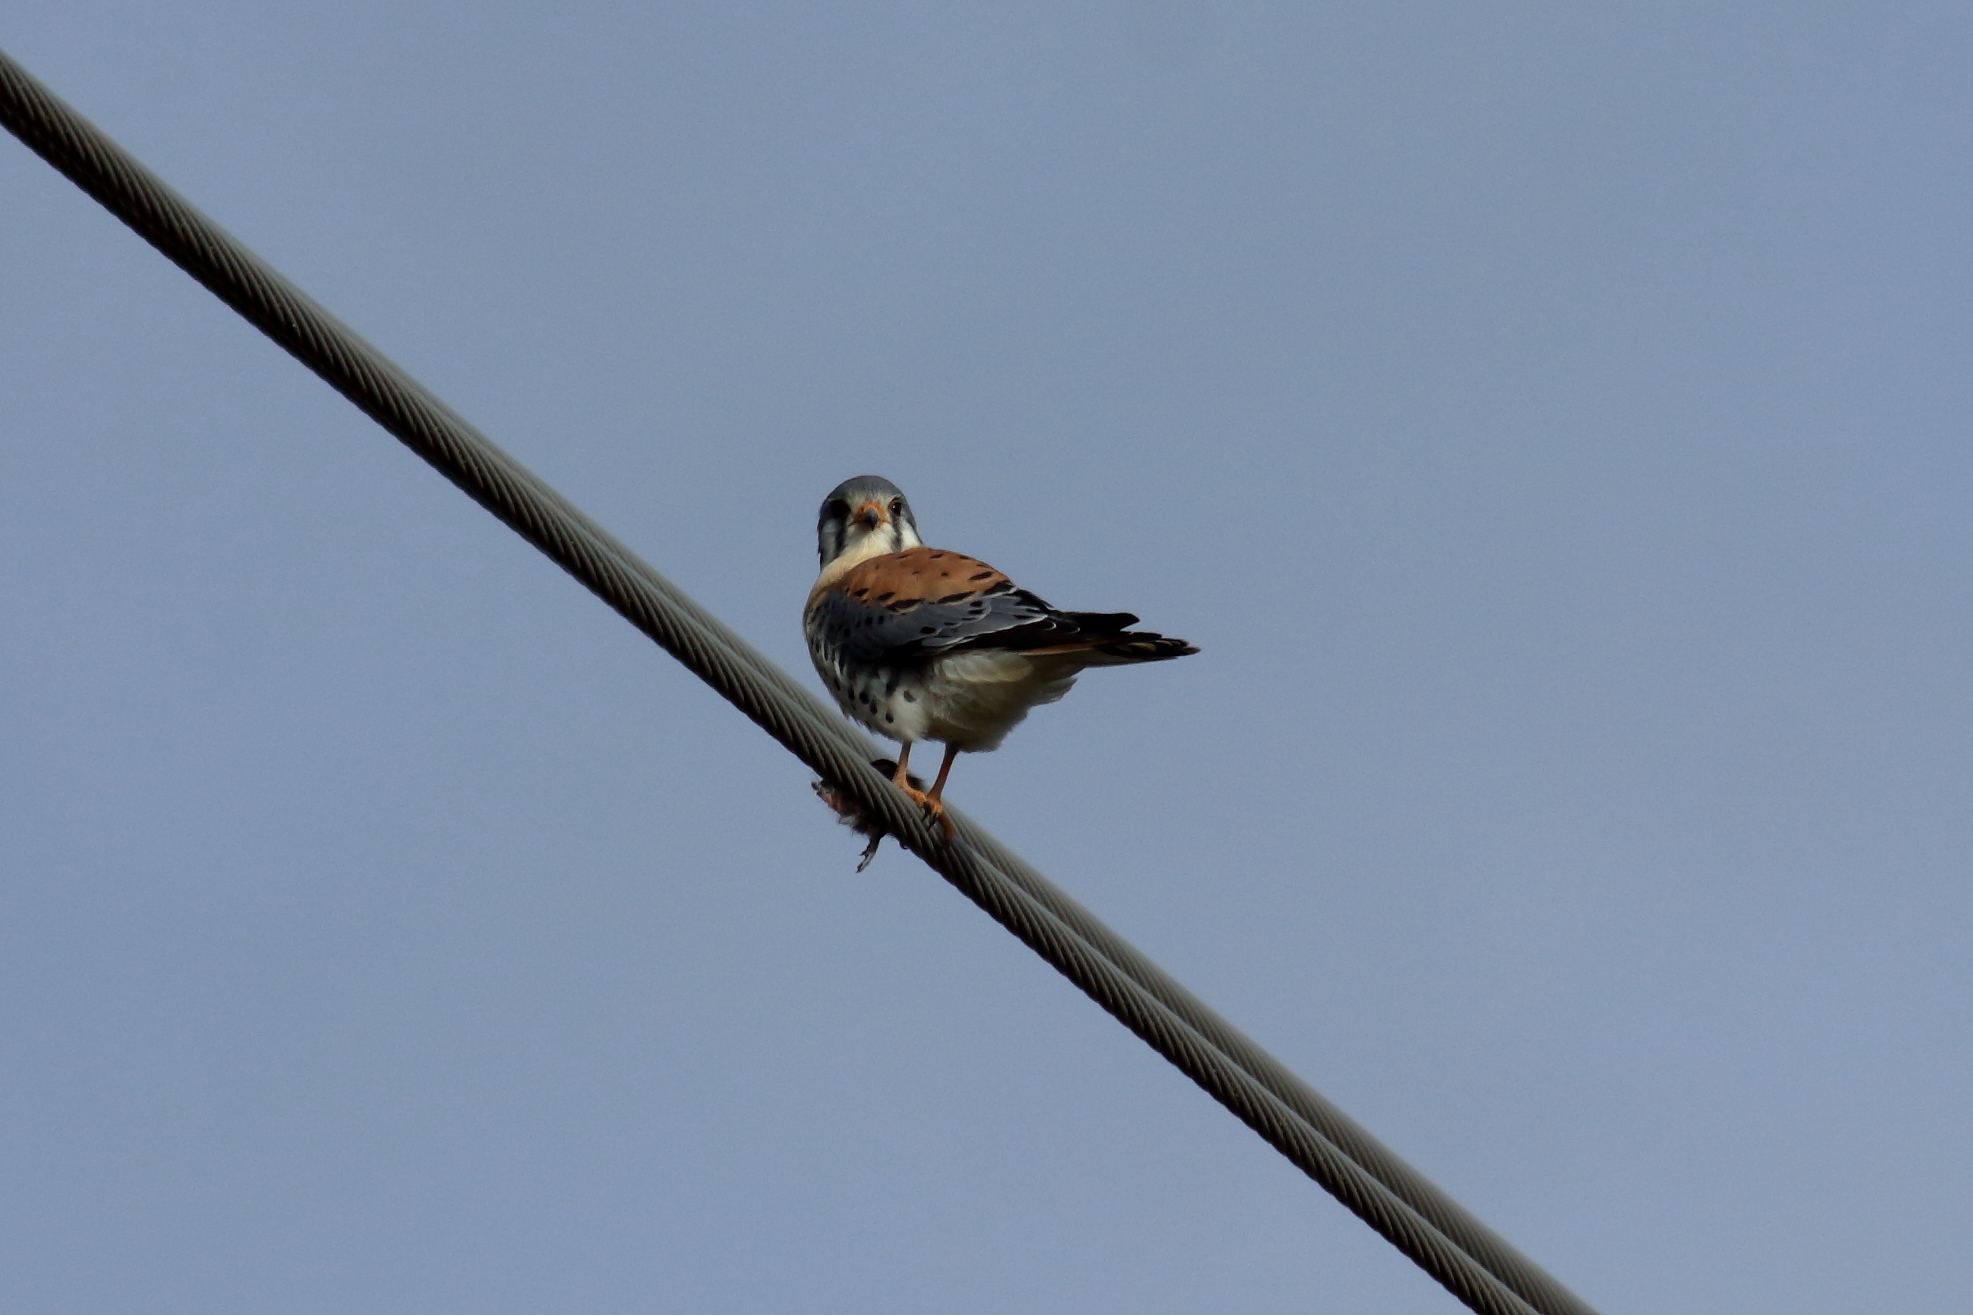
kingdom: Animalia
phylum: Chordata
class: Aves
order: Falconiformes
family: Falconidae
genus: Falco
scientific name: Falco sparverius
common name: American kestrel
